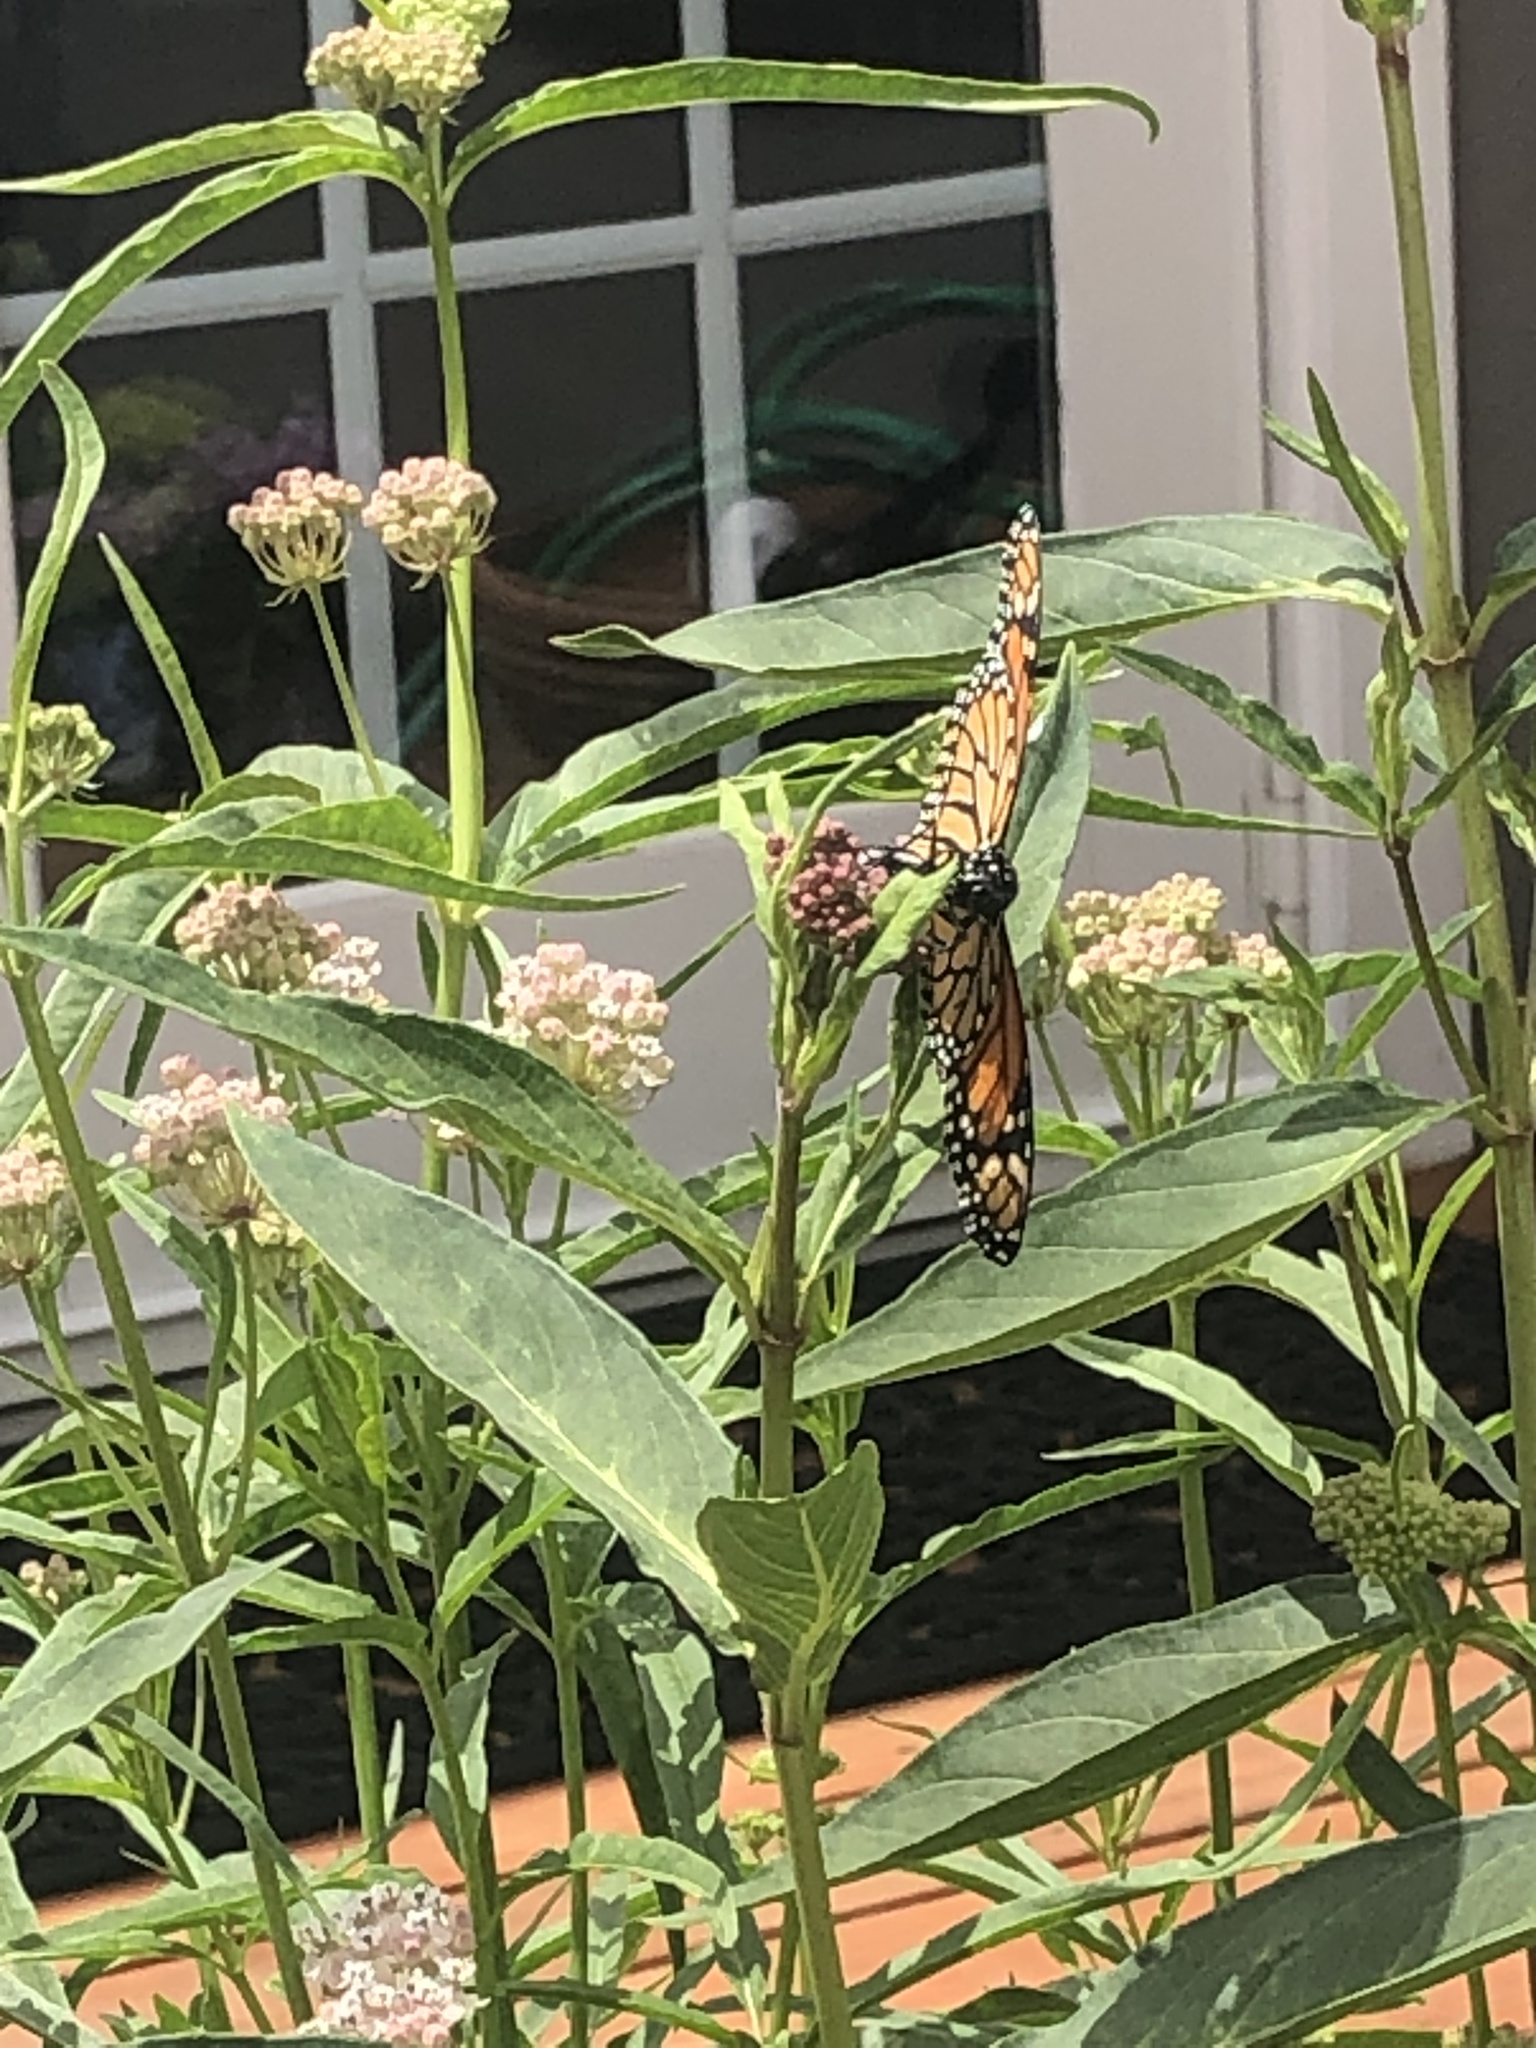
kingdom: Animalia
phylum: Arthropoda
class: Insecta
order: Lepidoptera
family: Nymphalidae
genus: Danaus
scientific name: Danaus plexippus
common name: Monarch
